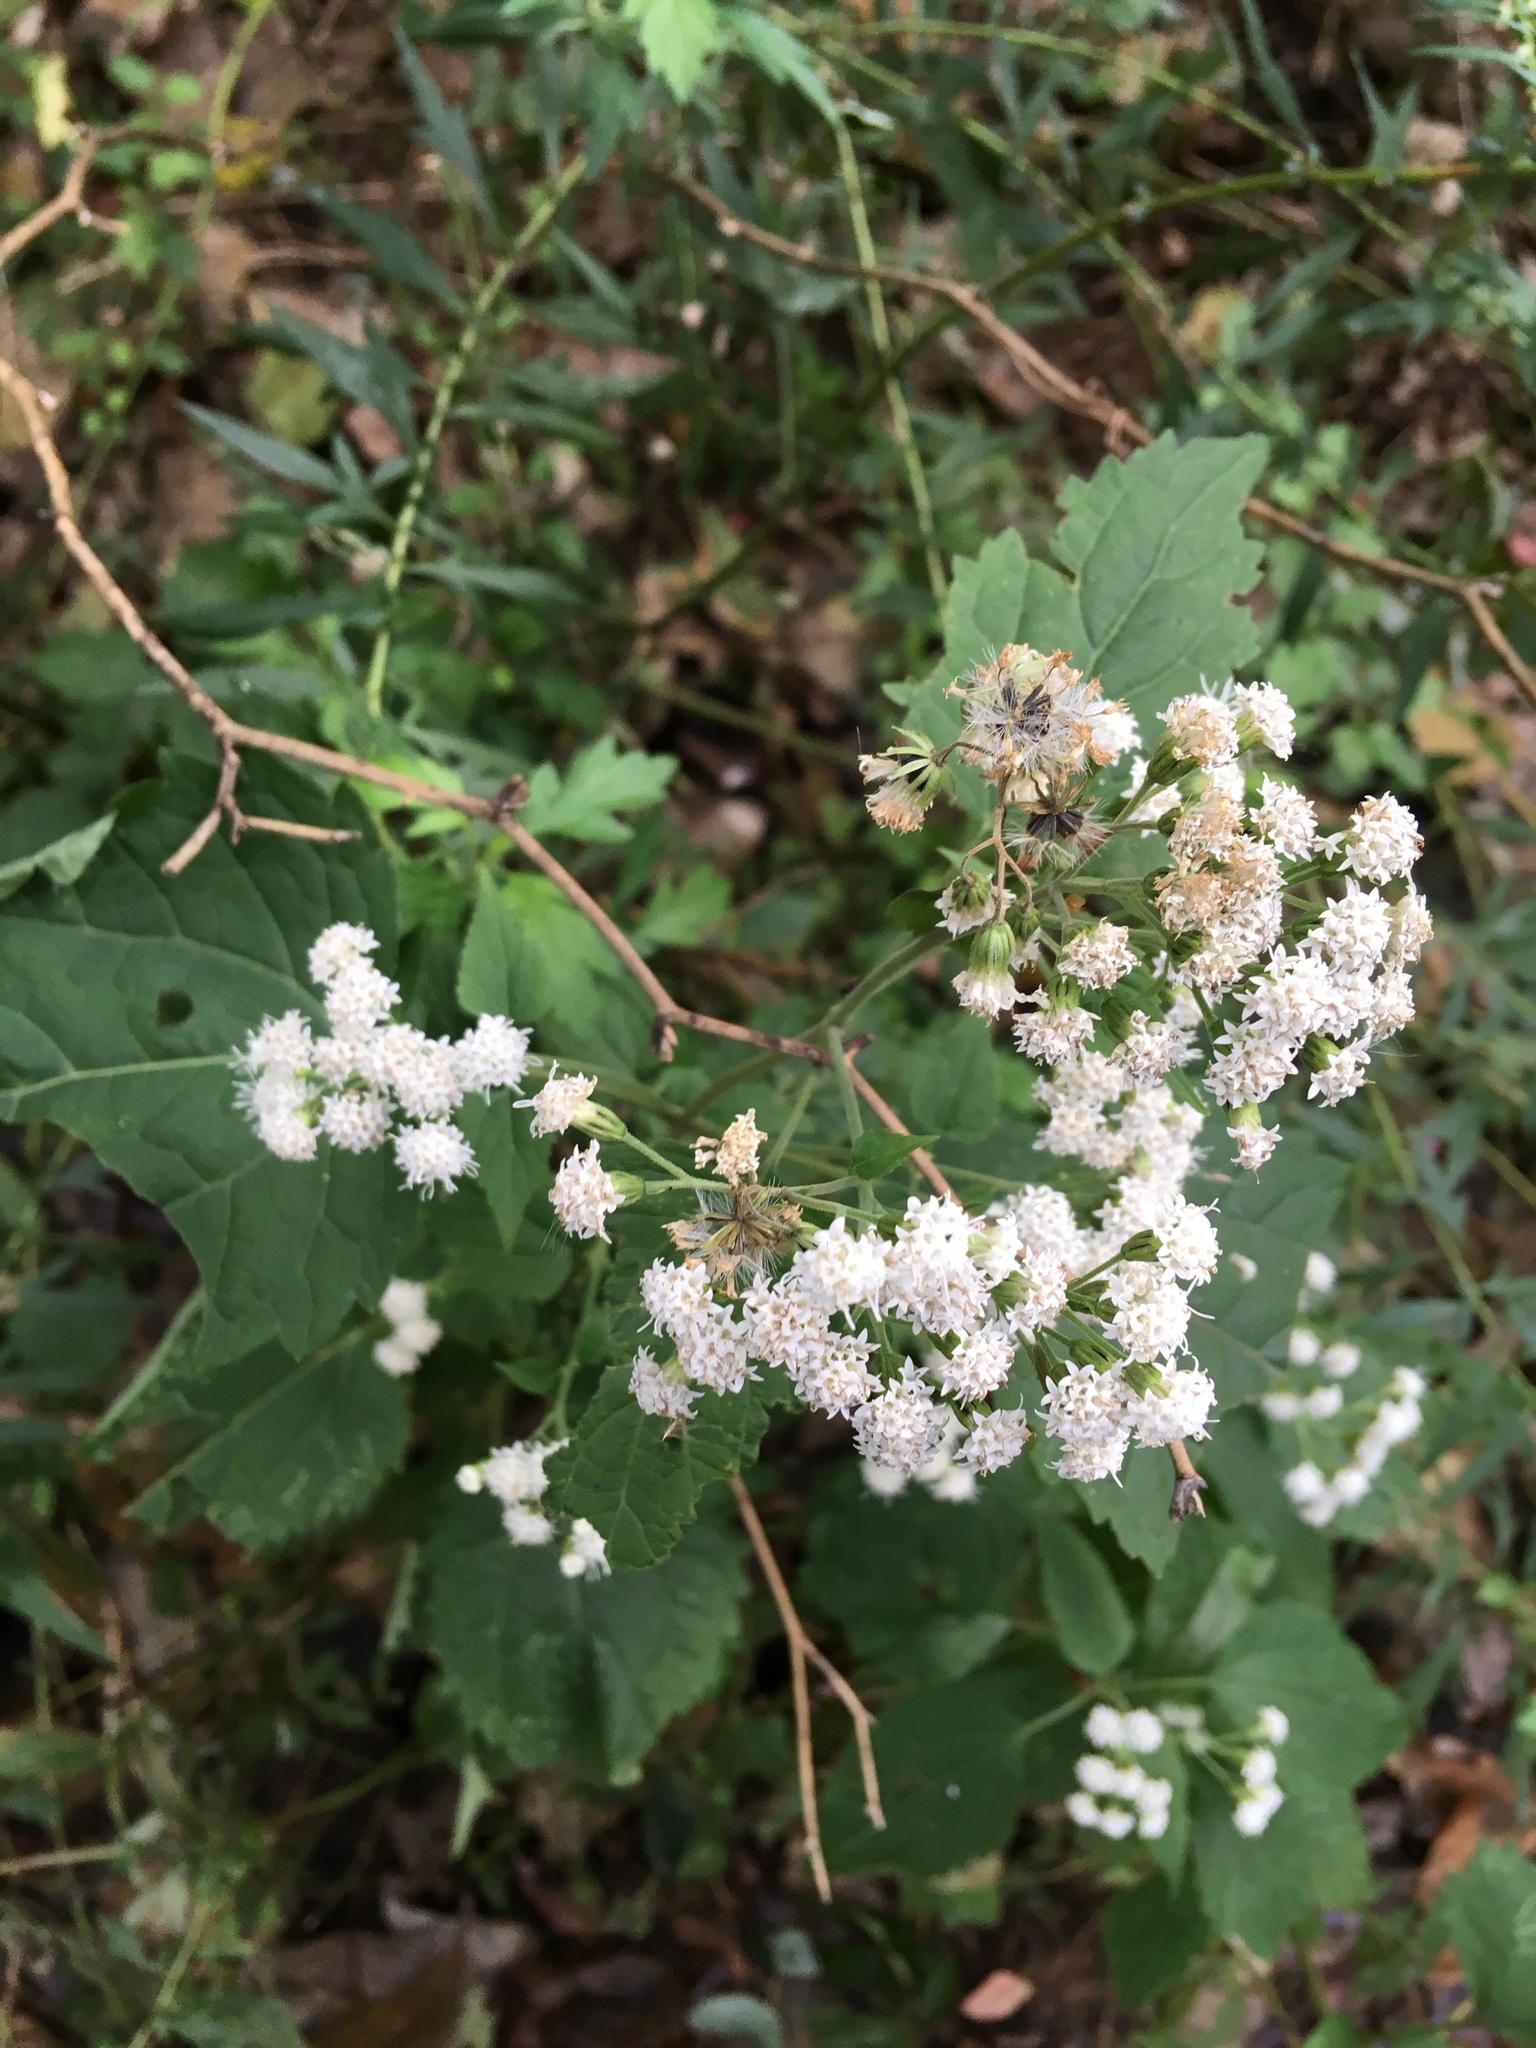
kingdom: Plantae
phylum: Tracheophyta
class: Magnoliopsida
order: Asterales
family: Asteraceae
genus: Ageratina
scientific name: Ageratina altissima
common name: White snakeroot
